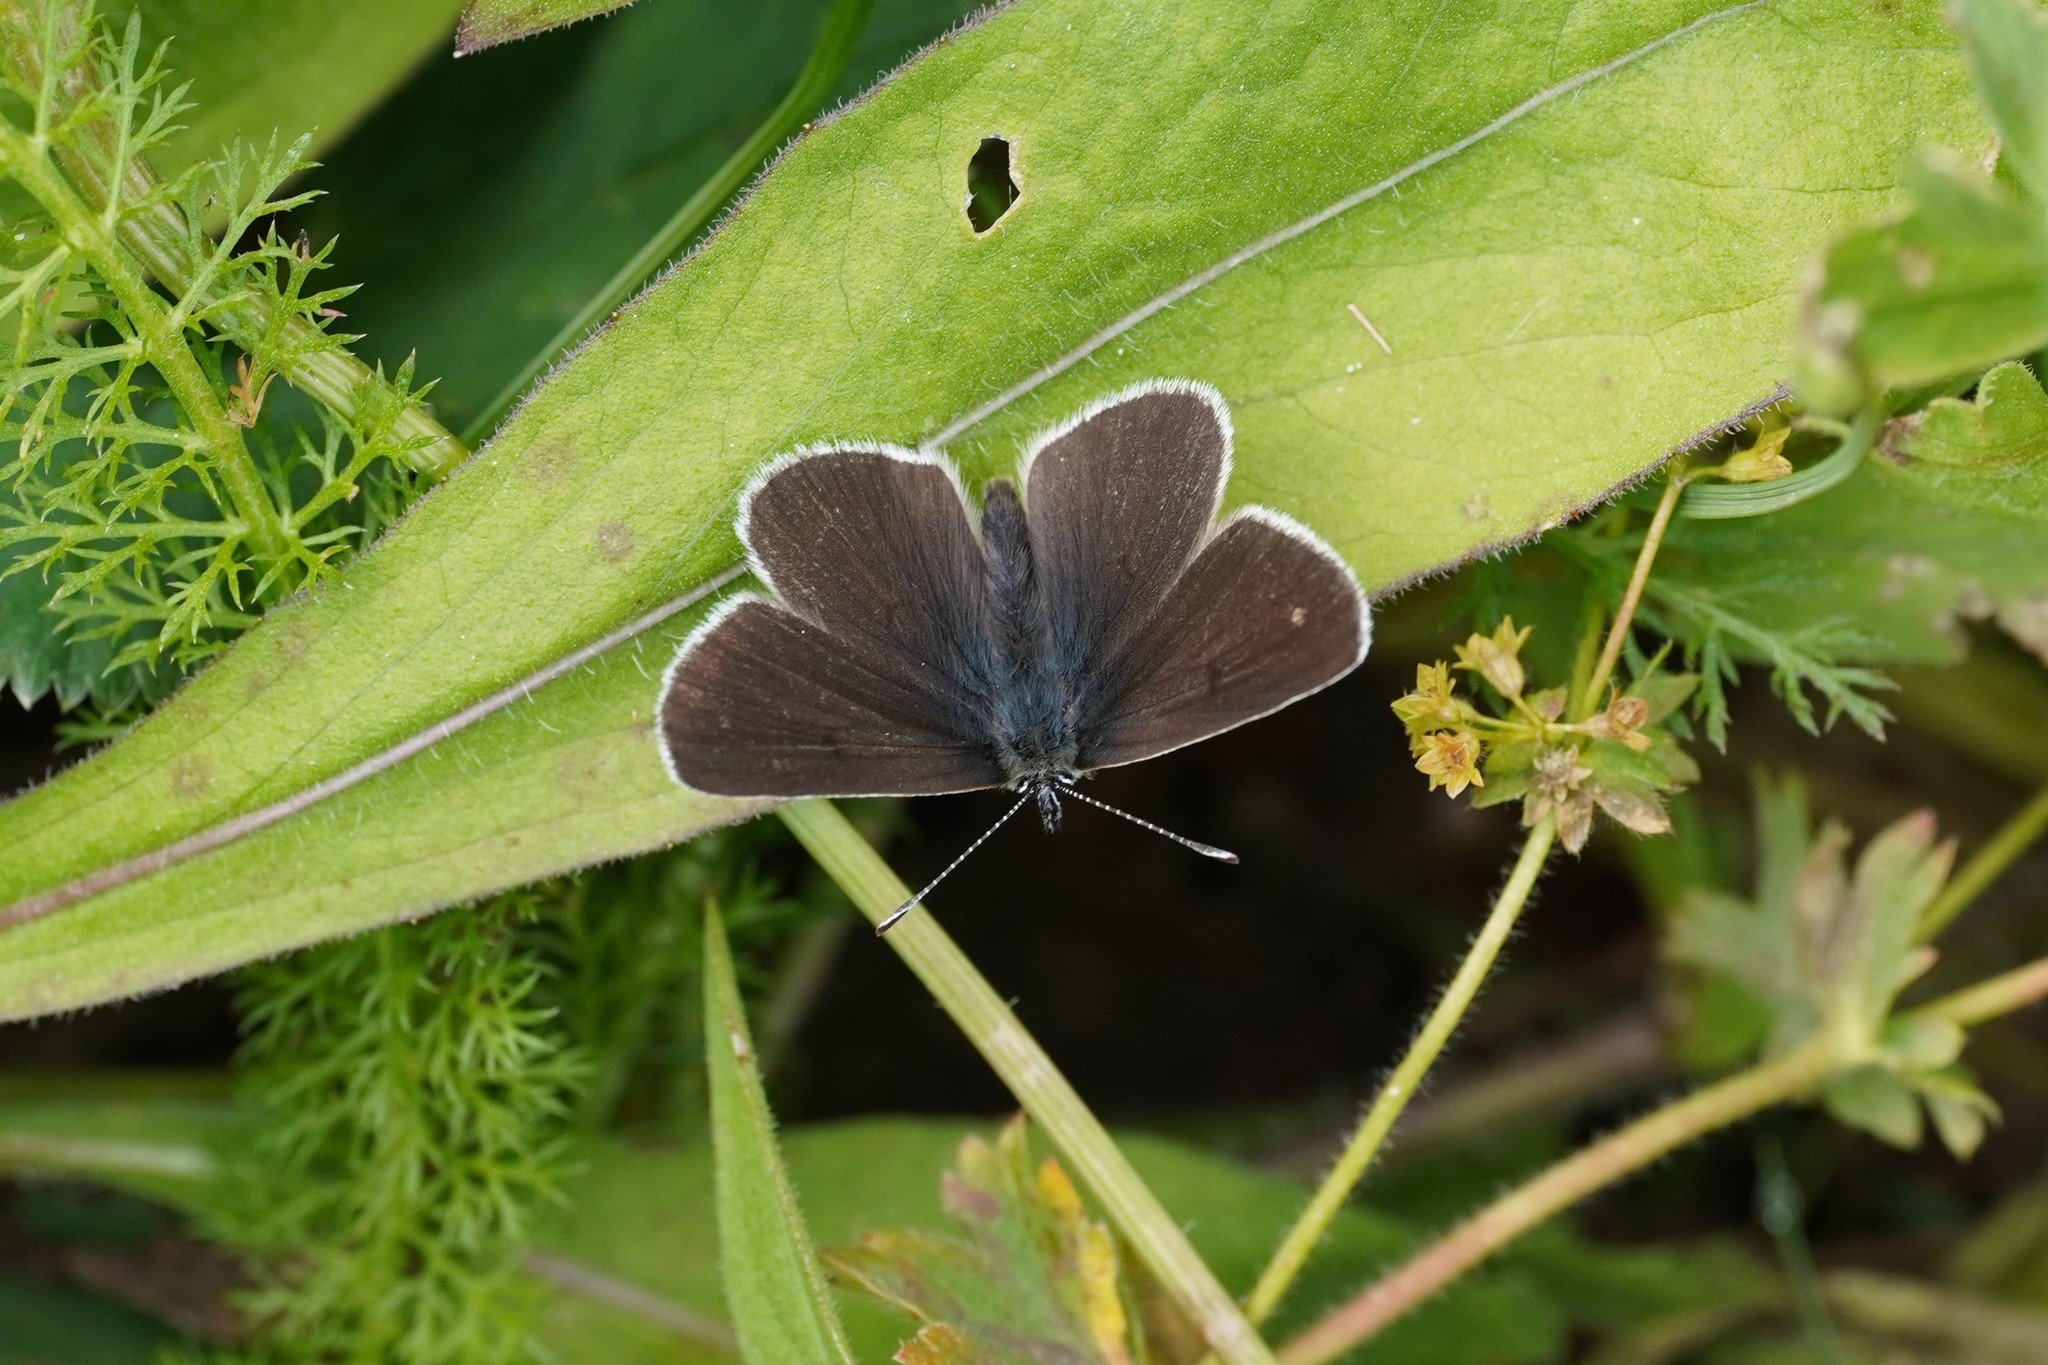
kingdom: Animalia
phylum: Arthropoda
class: Insecta
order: Lepidoptera
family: Lycaenidae
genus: Eumedonia
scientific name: Eumedonia eumedon
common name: Geranium argus
